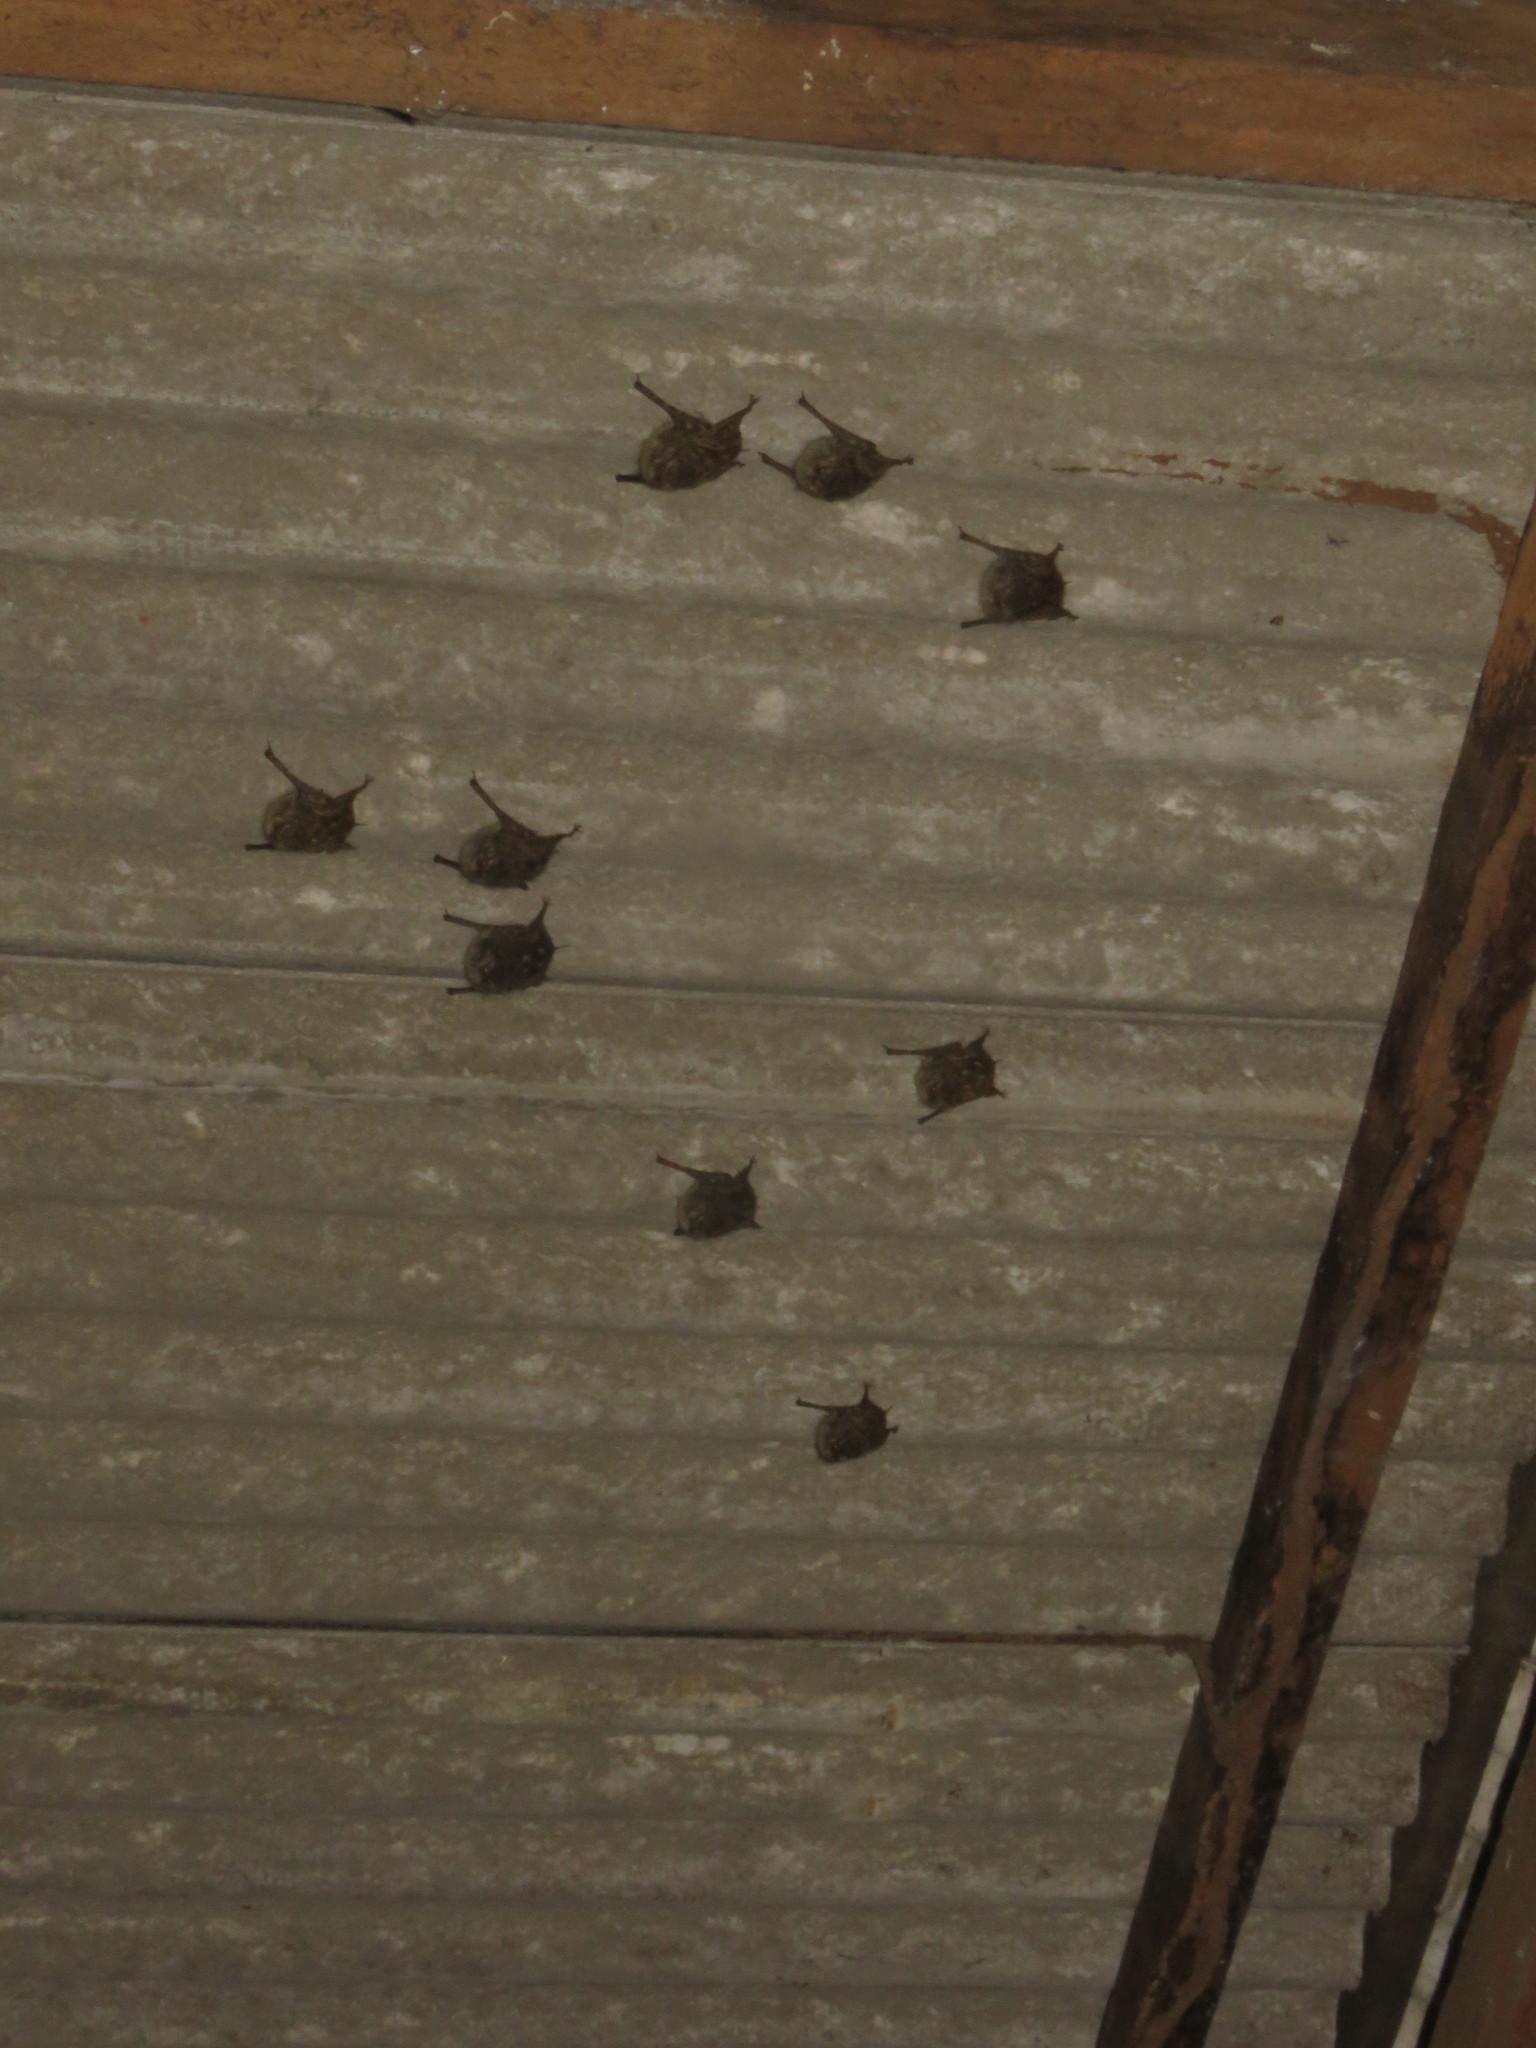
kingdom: Animalia
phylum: Chordata
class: Mammalia
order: Chiroptera
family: Emballonuridae
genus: Rhynchonycteris
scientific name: Rhynchonycteris naso
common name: Proboscis bat
